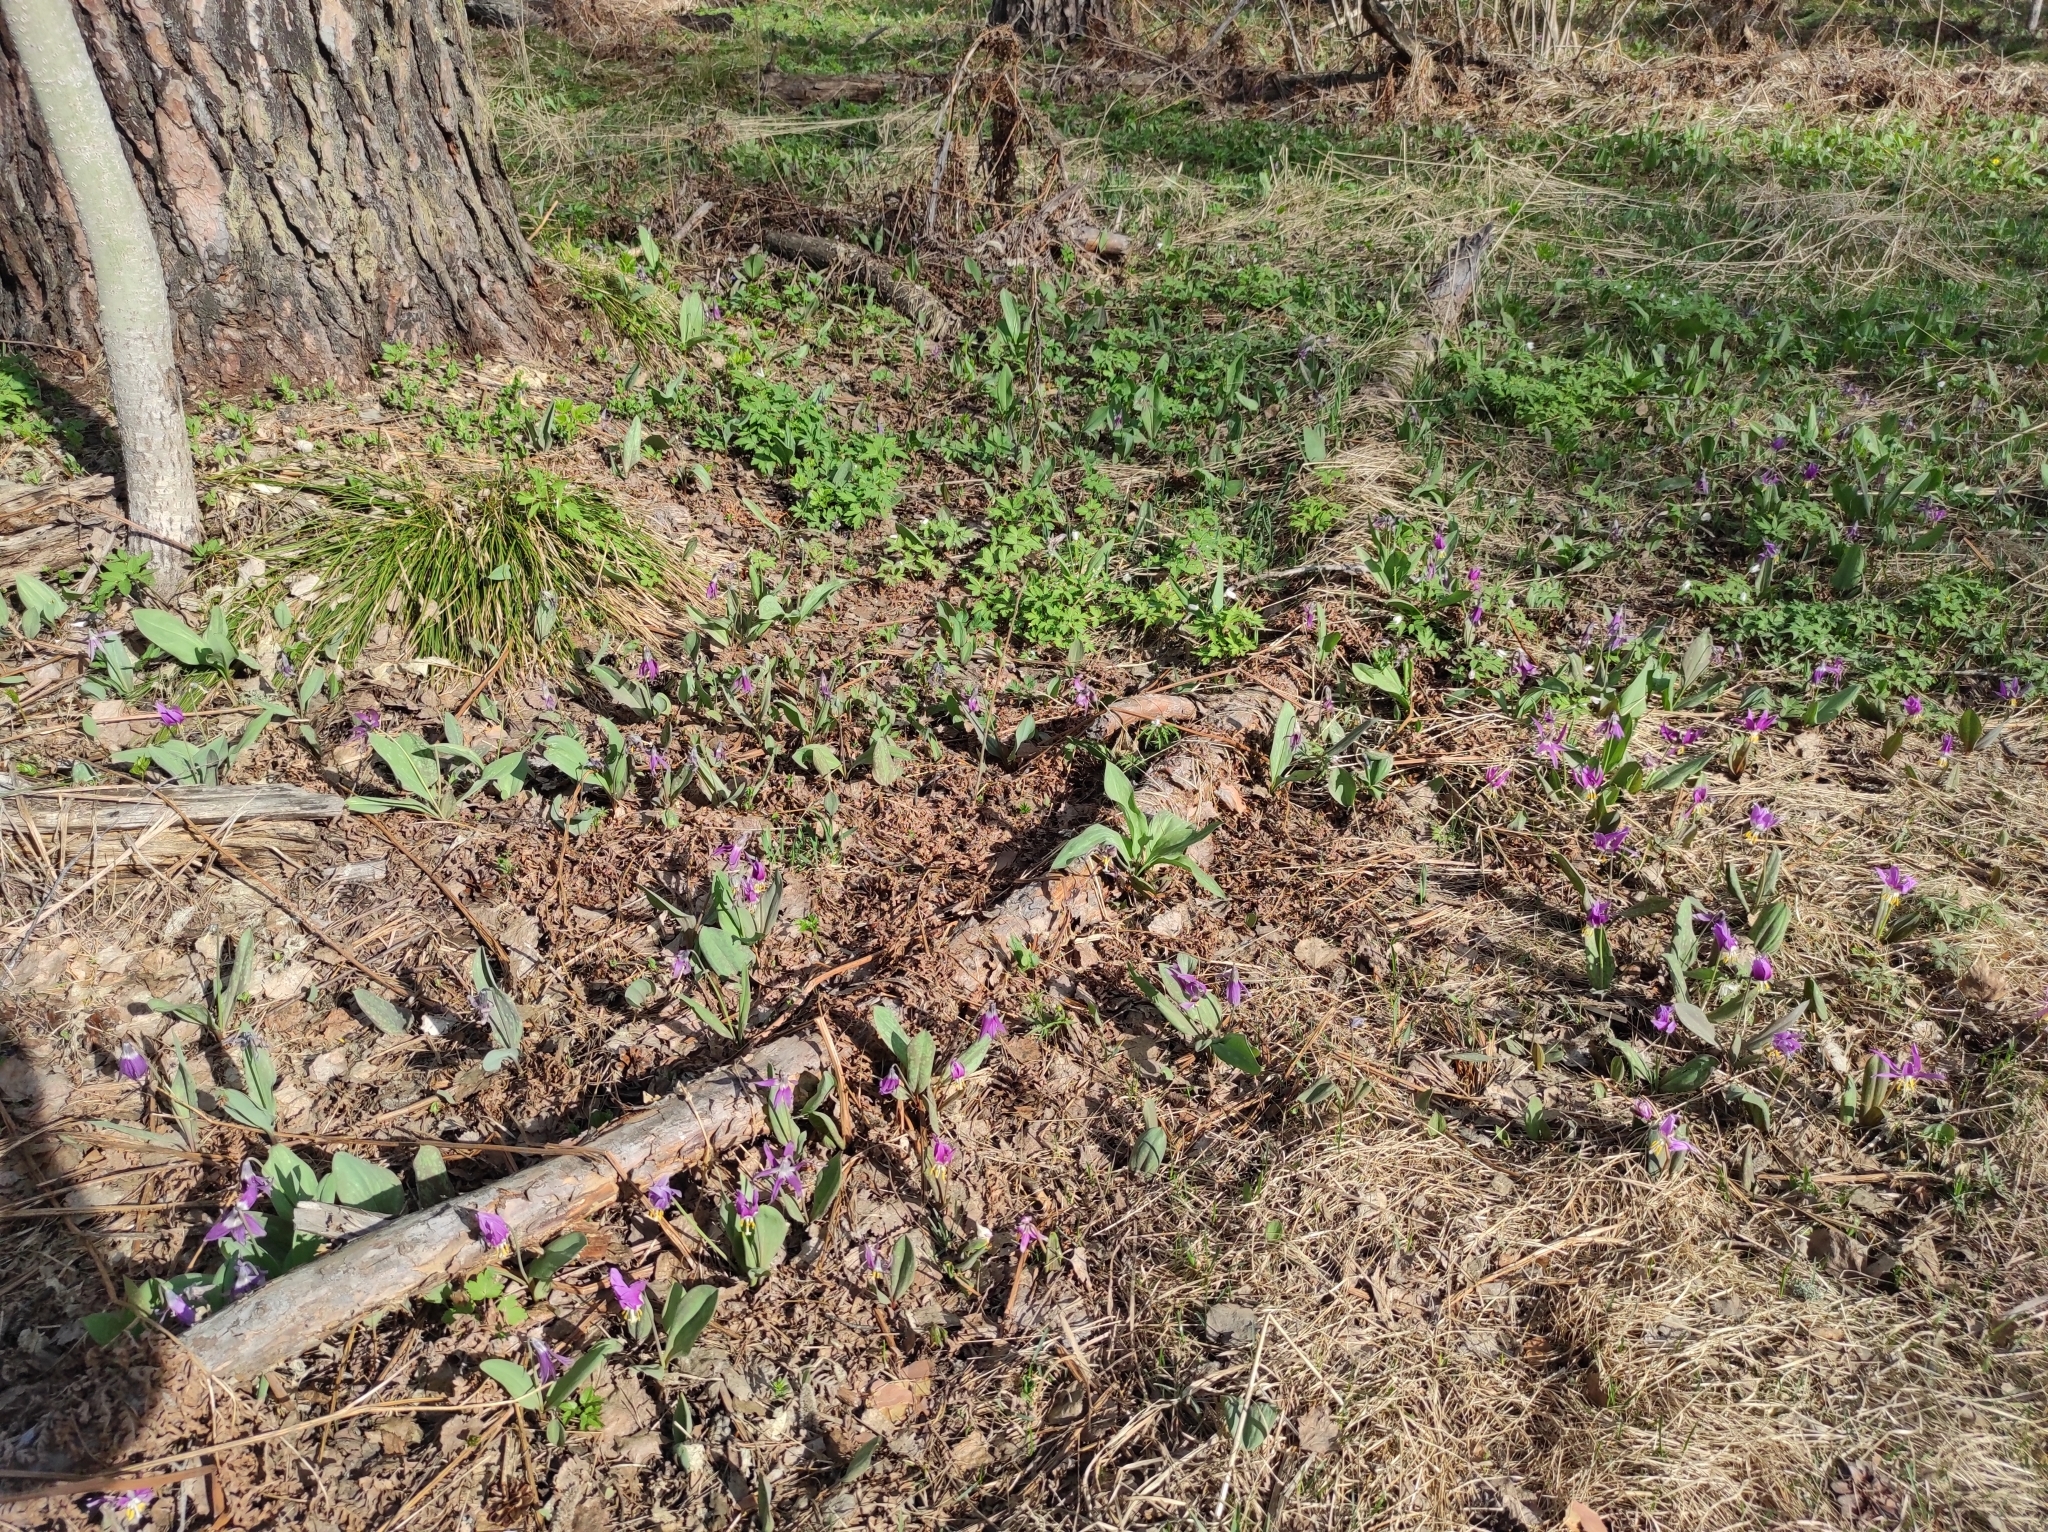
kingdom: Plantae
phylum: Tracheophyta
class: Liliopsida
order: Liliales
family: Liliaceae
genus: Erythronium
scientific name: Erythronium sibiricum
